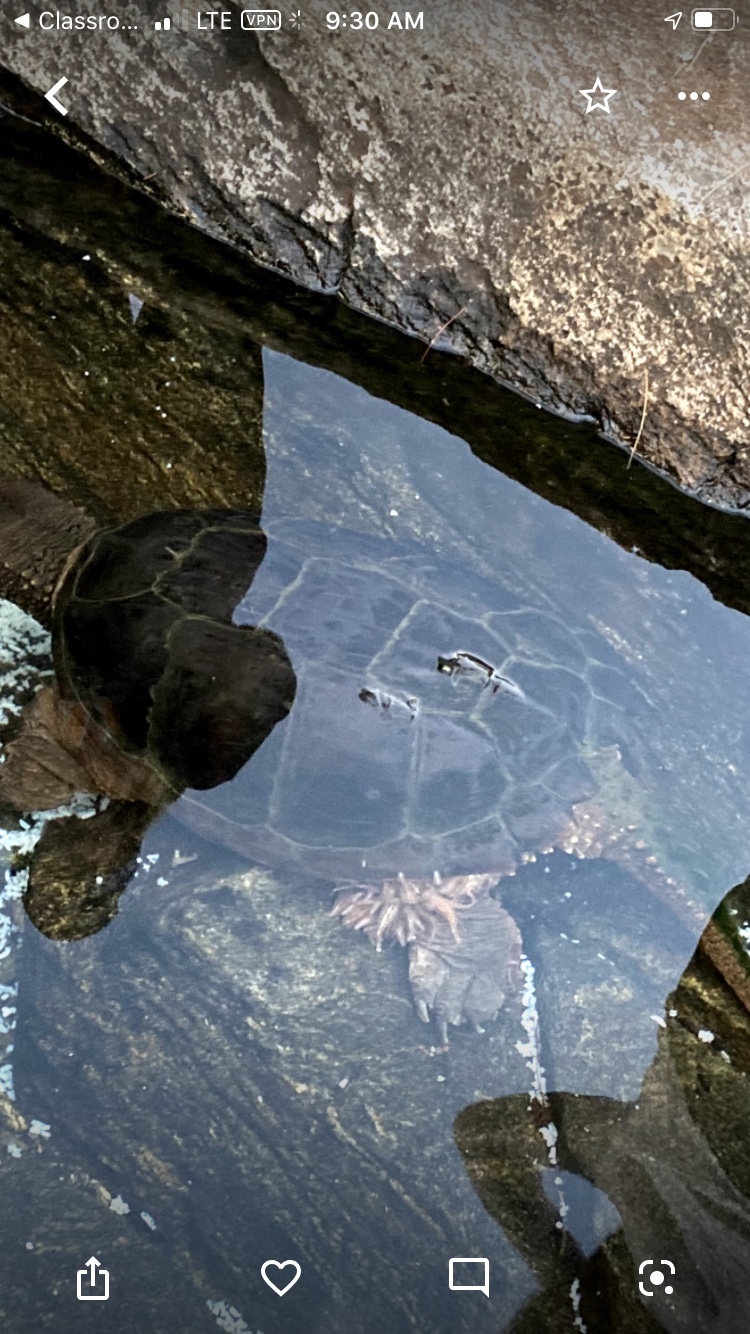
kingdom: Animalia
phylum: Chordata
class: Testudines
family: Chelydridae
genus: Chelydra
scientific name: Chelydra serpentina
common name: Common snapping turtle
